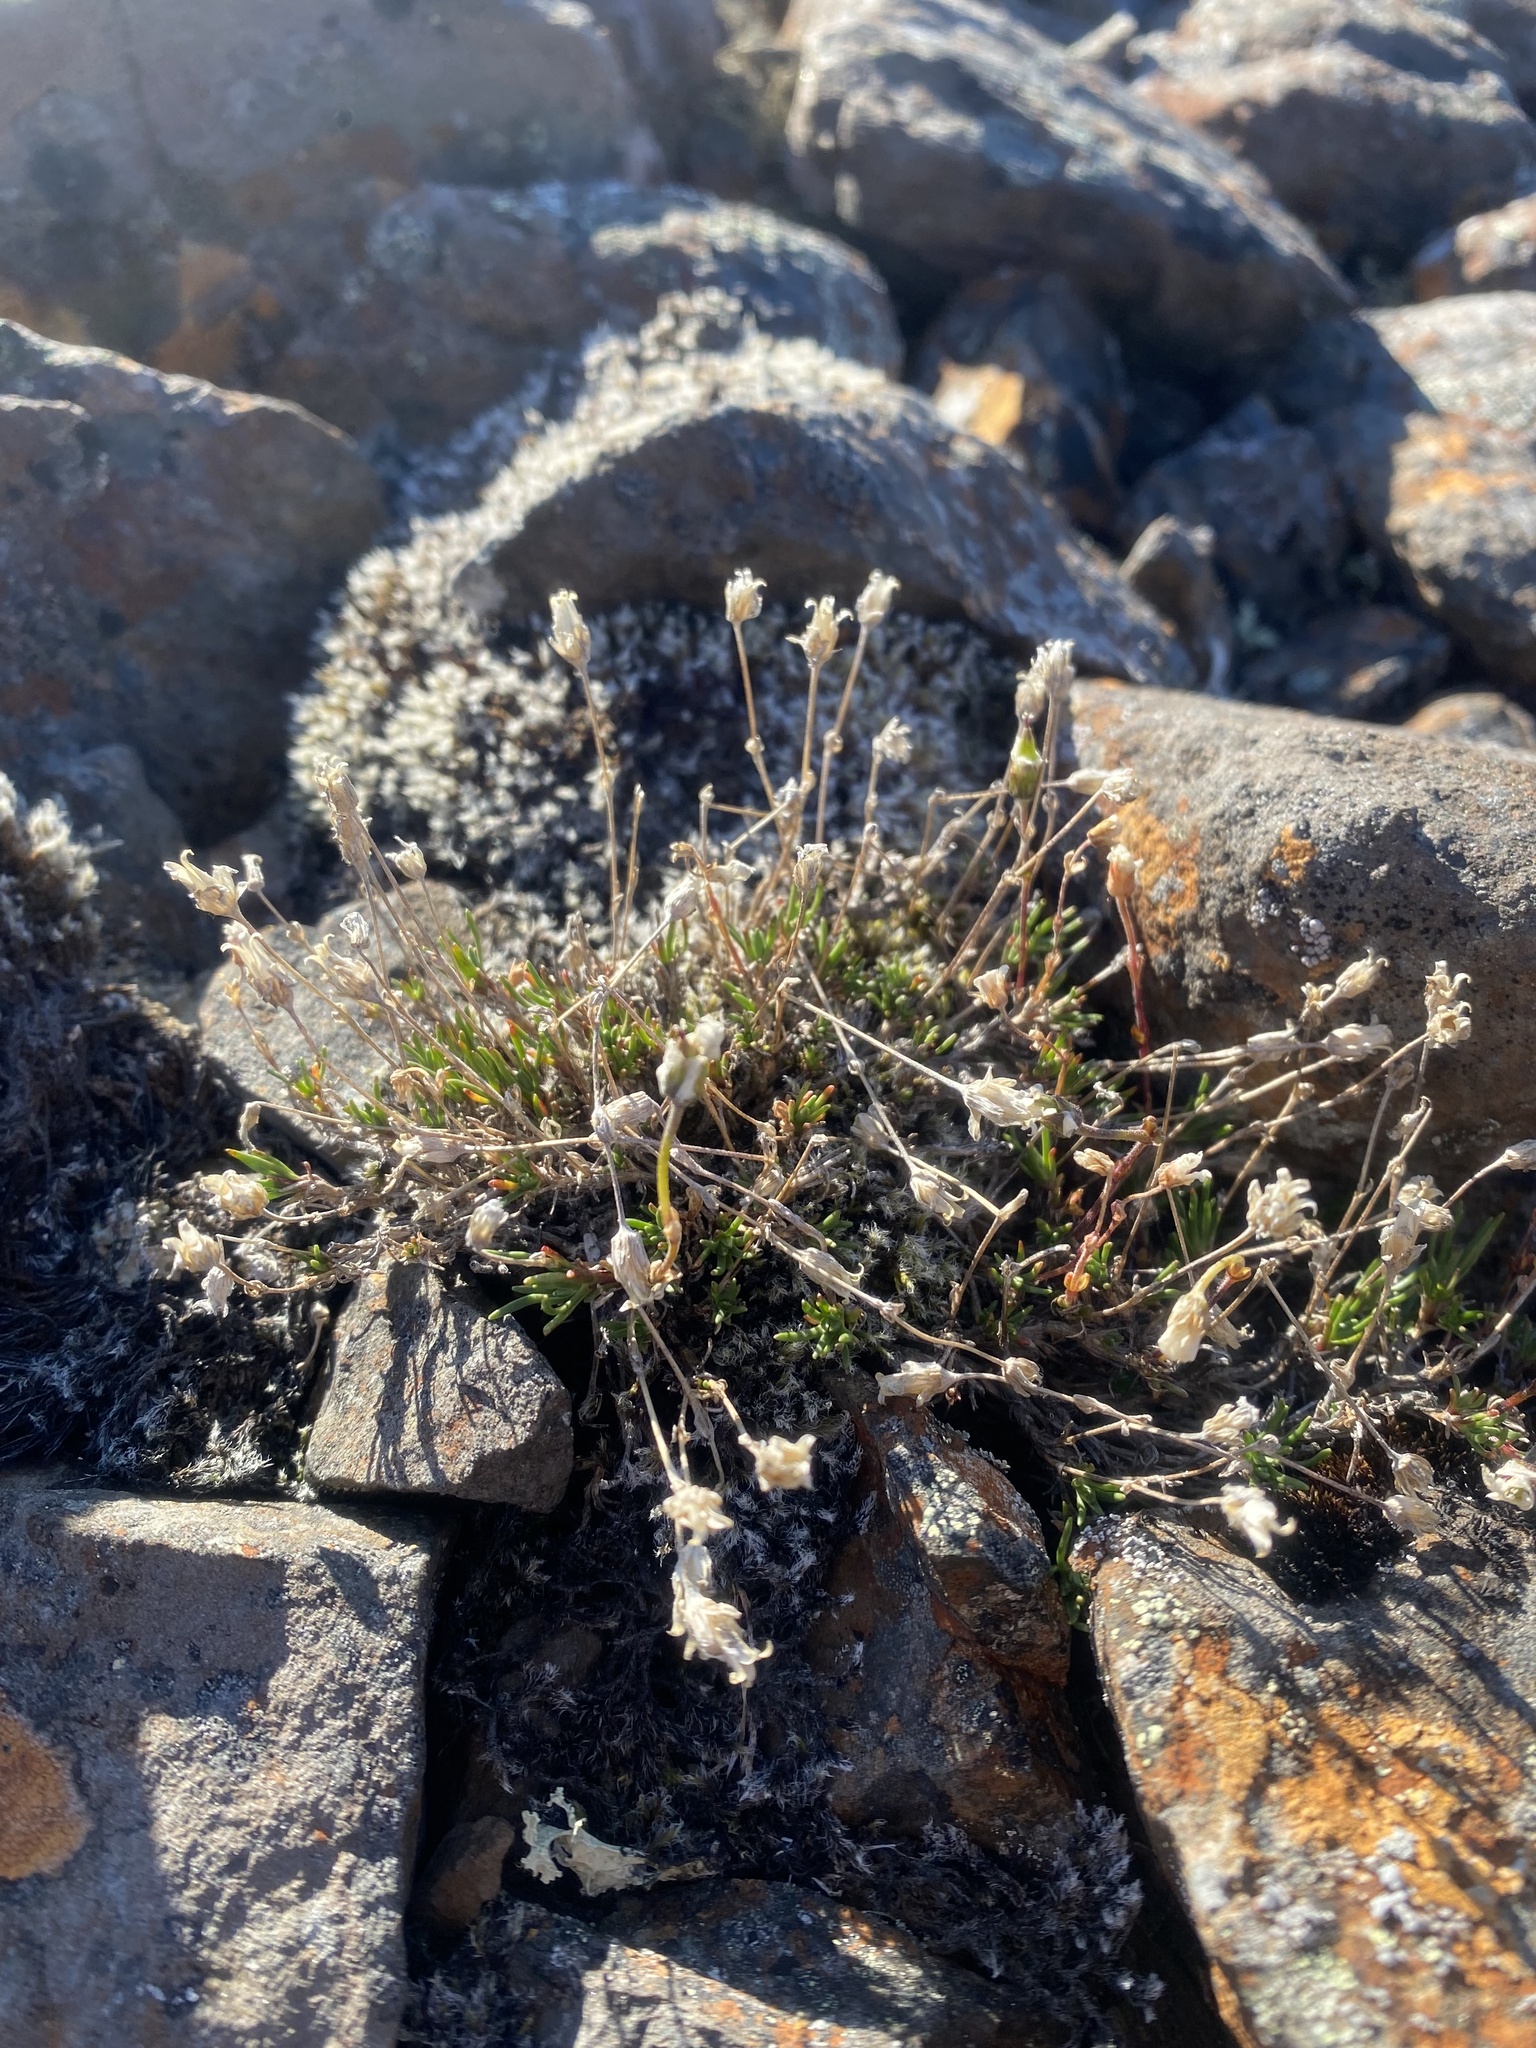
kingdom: Plantae
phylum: Tracheophyta
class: Magnoliopsida
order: Caryophyllales
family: Caryophyllaceae
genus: Cherleria
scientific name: Cherleria arctica
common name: Arctic sandwort
